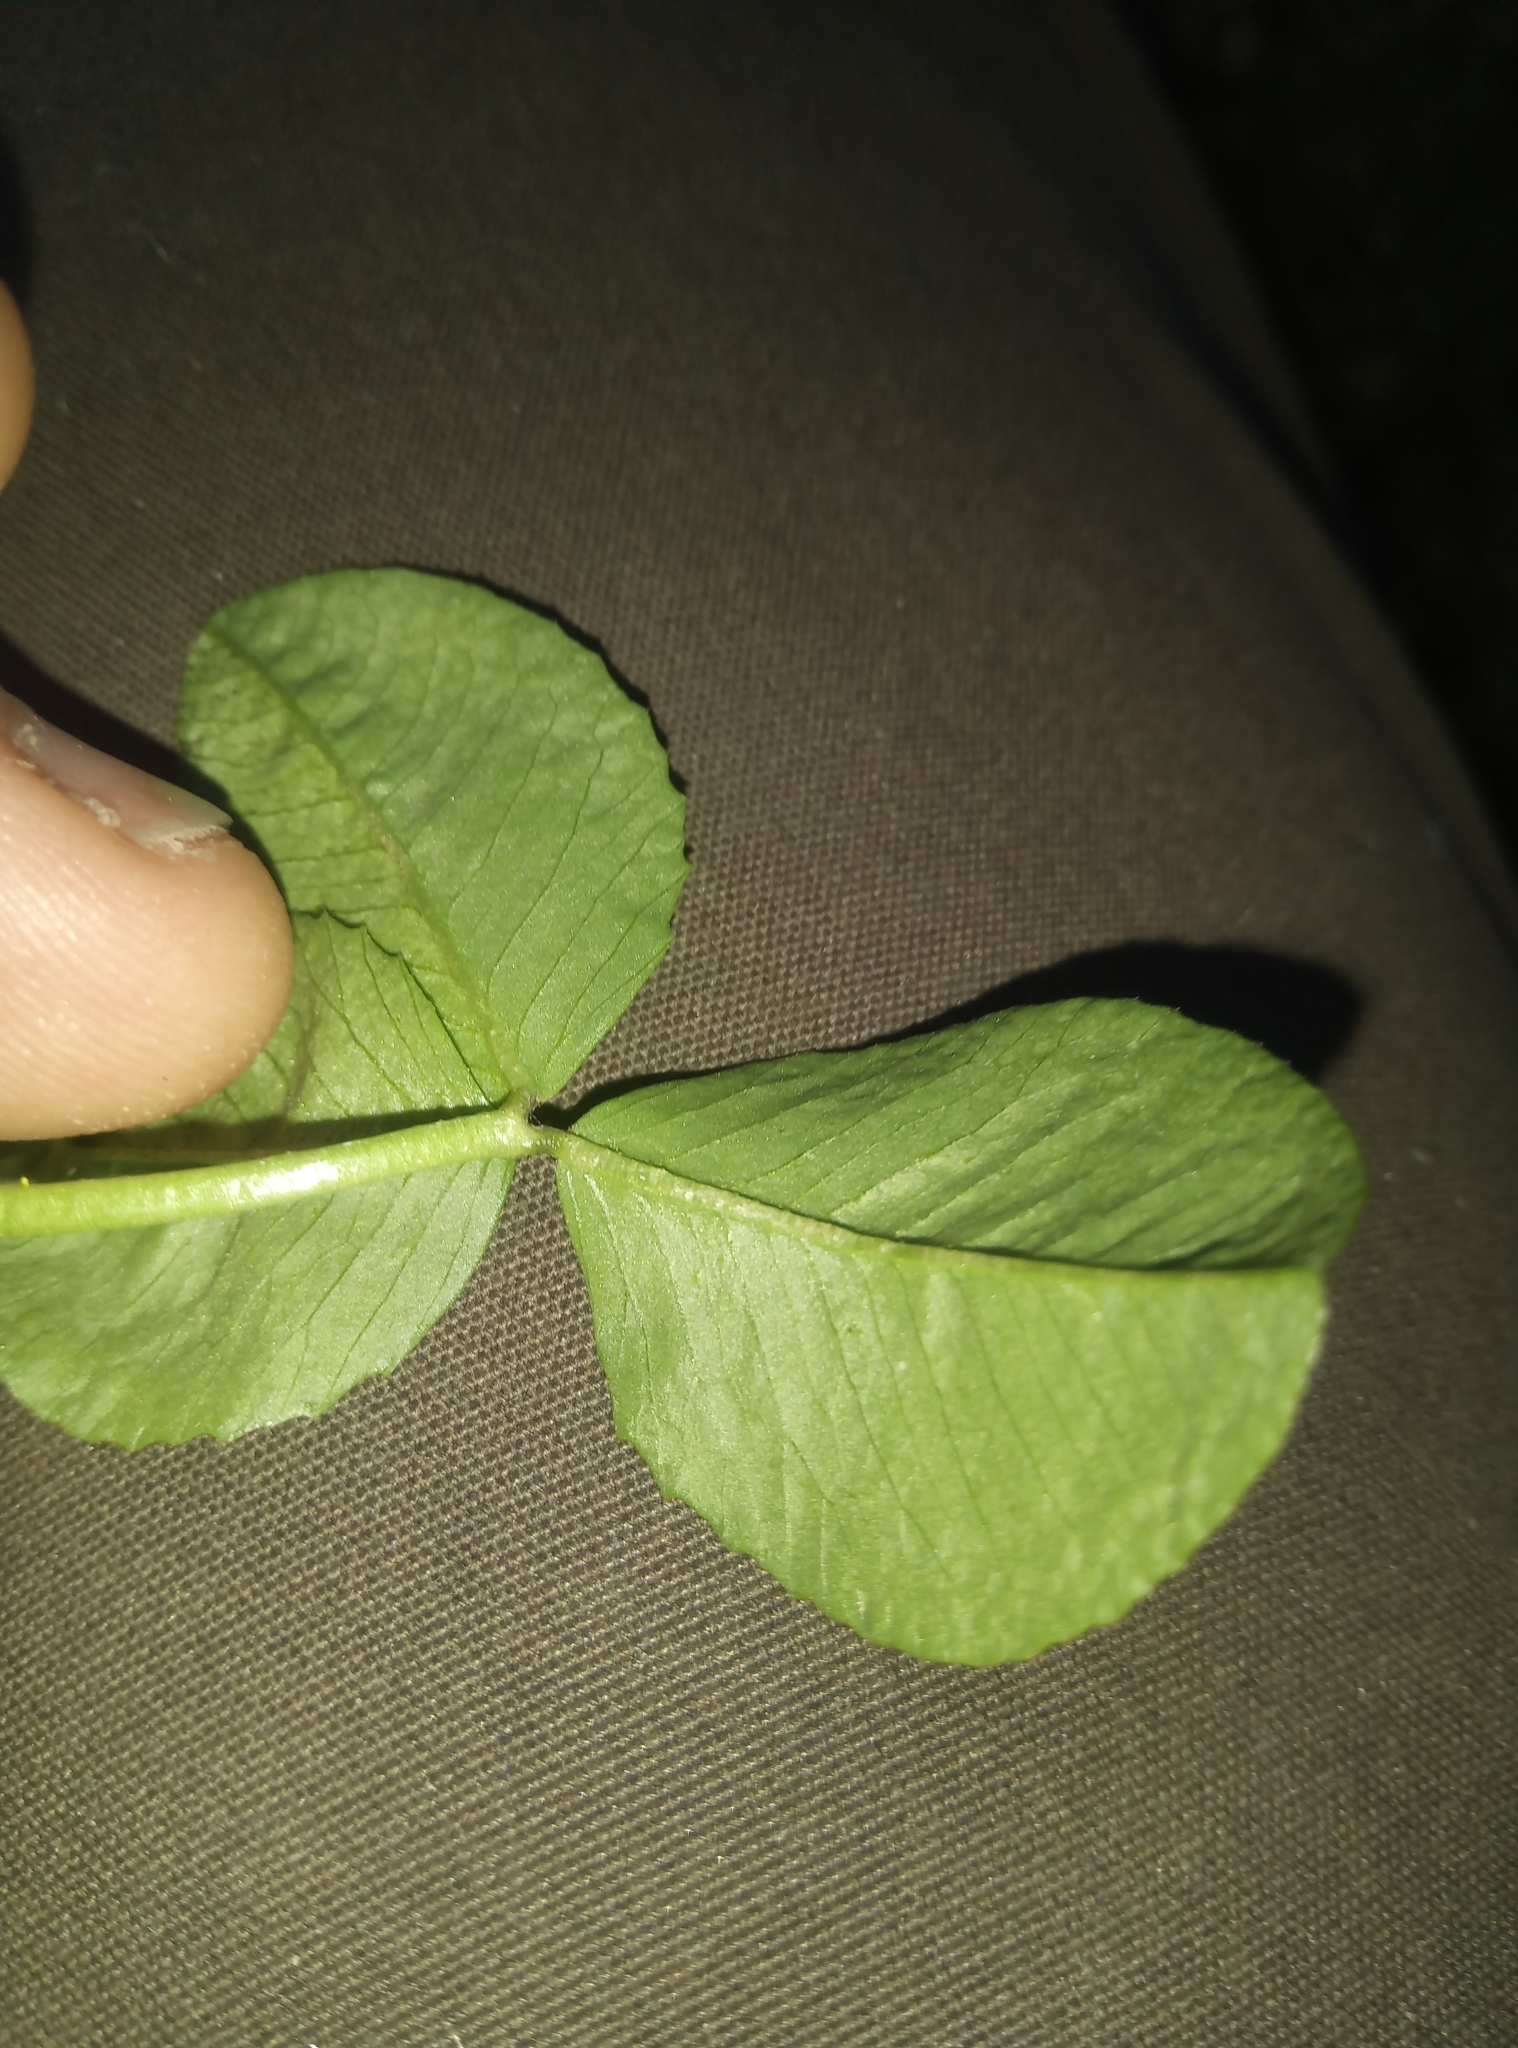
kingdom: Plantae
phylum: Tracheophyta
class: Magnoliopsida
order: Fabales
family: Fabaceae
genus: Trifolium
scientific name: Trifolium repens
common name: White clover
